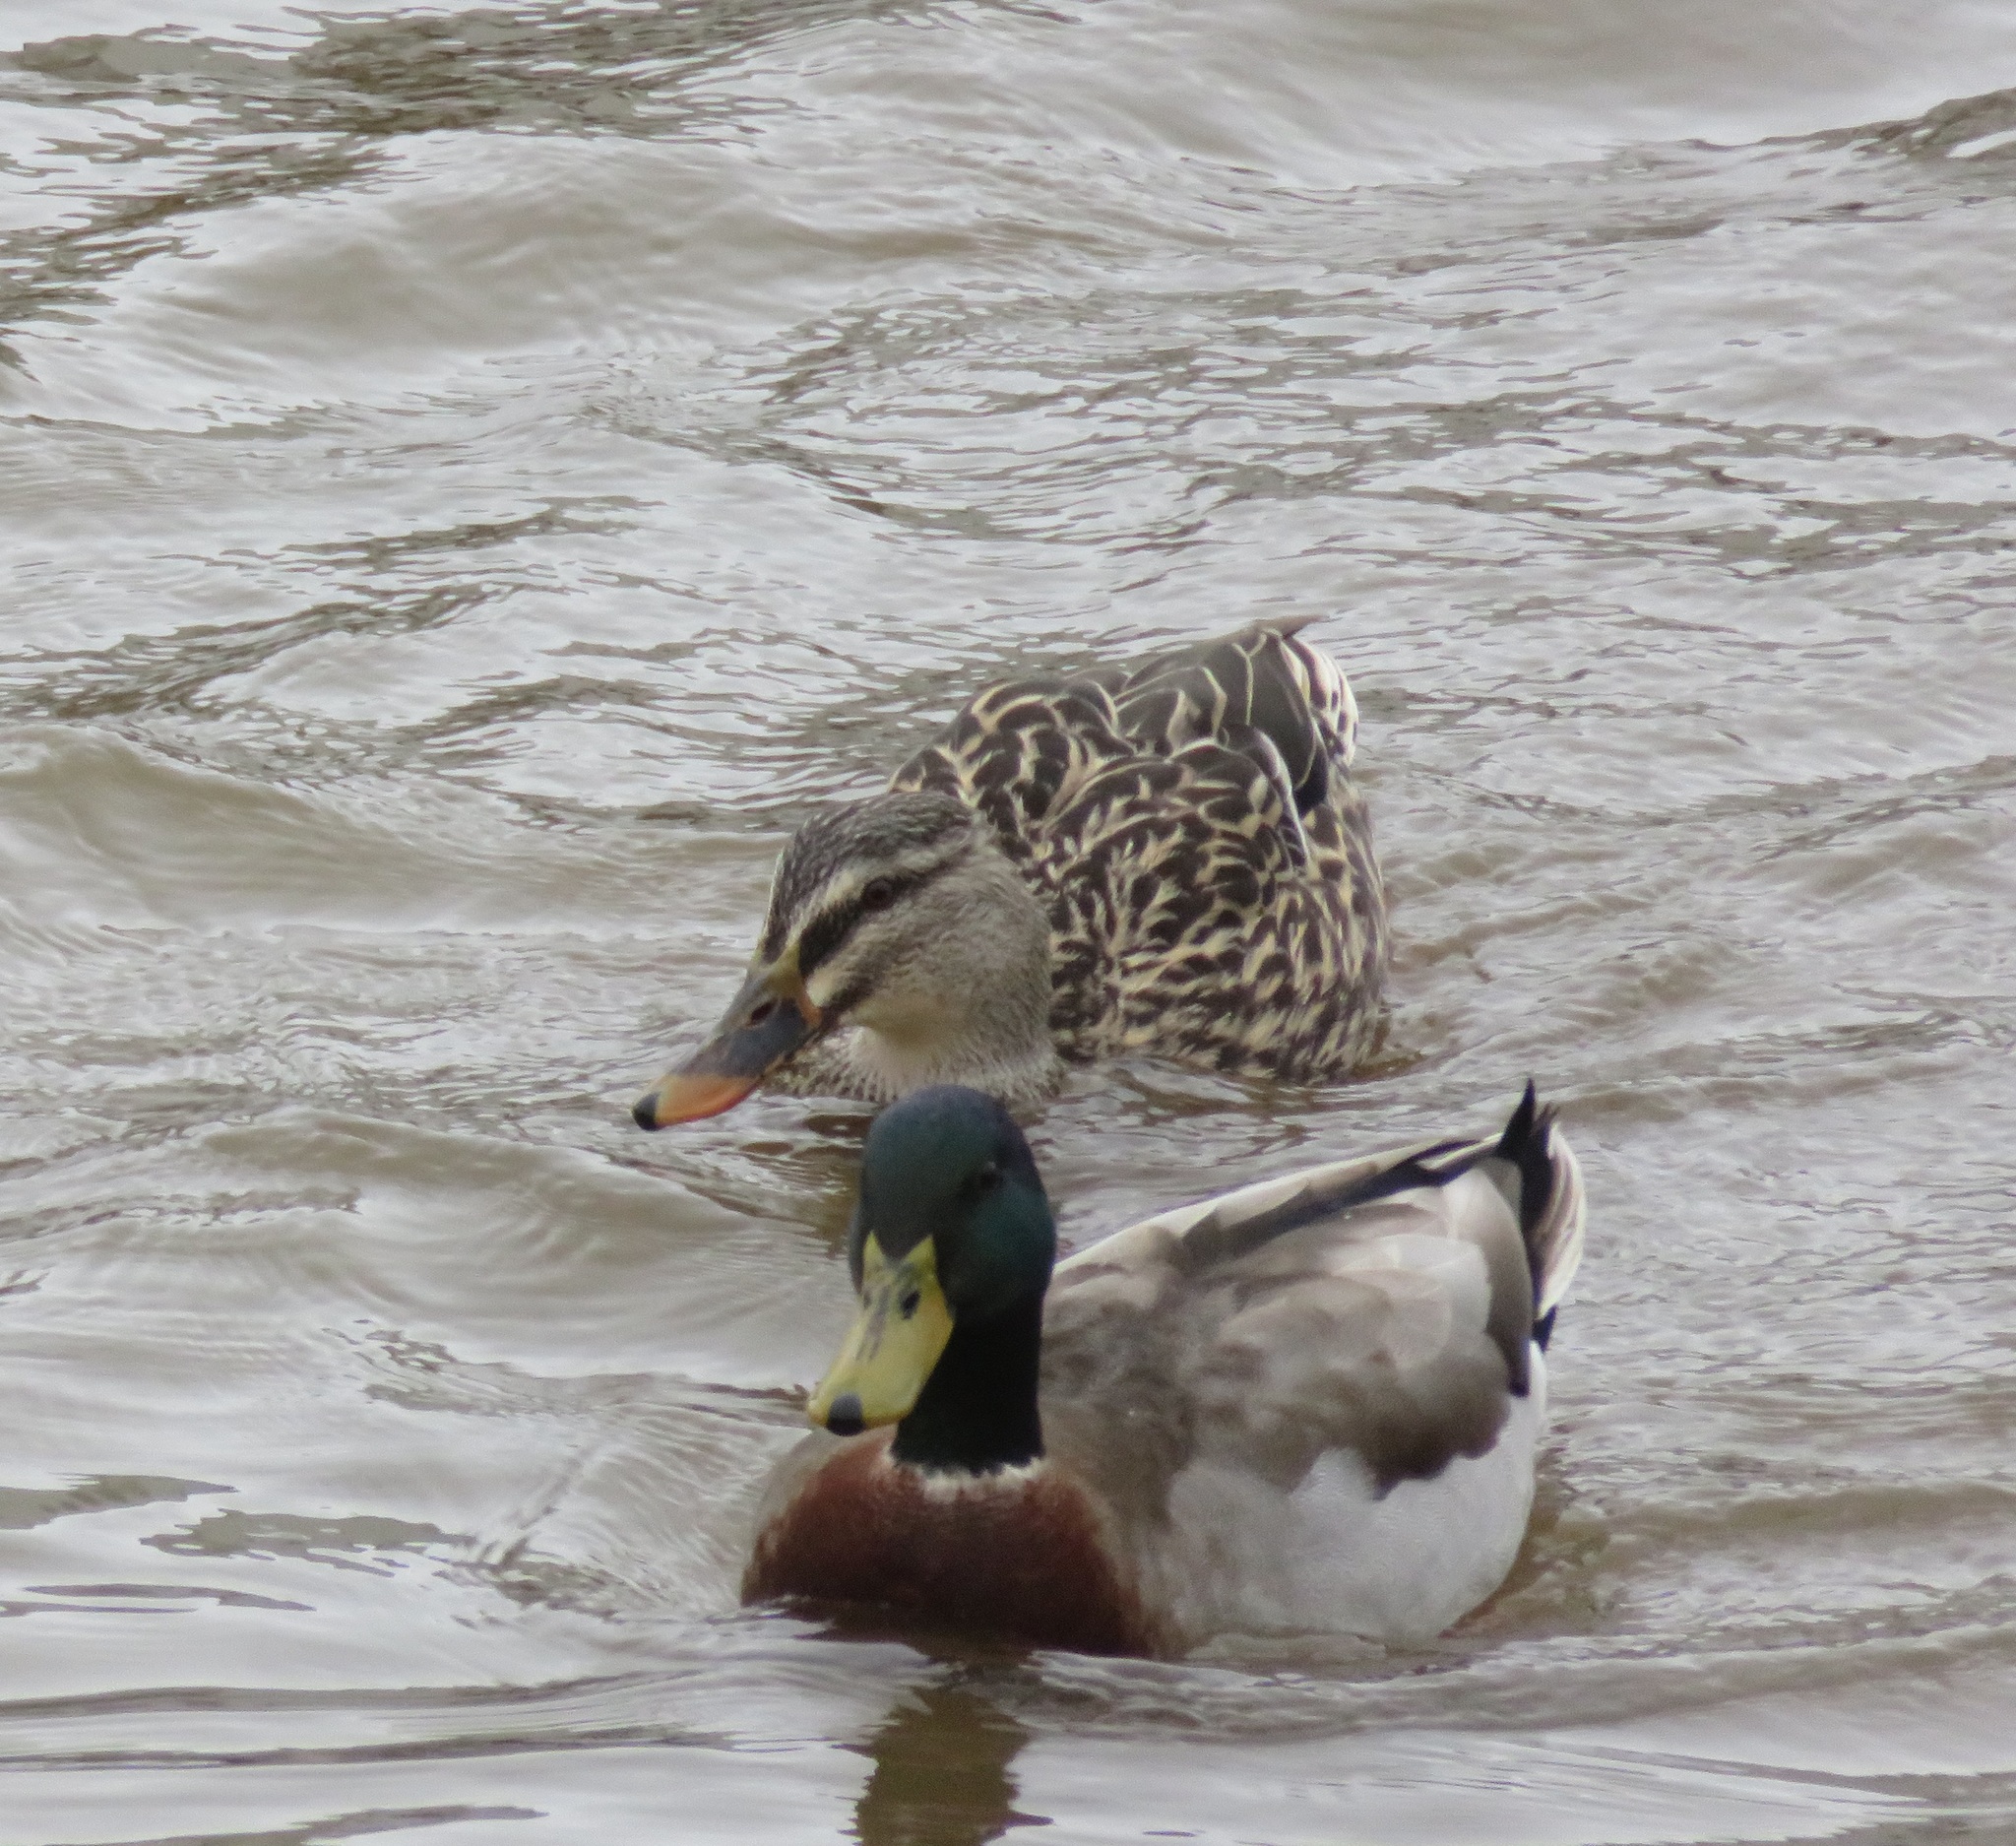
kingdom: Animalia
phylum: Chordata
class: Aves
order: Anseriformes
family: Anatidae
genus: Anas
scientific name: Anas platyrhynchos
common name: Mallard
